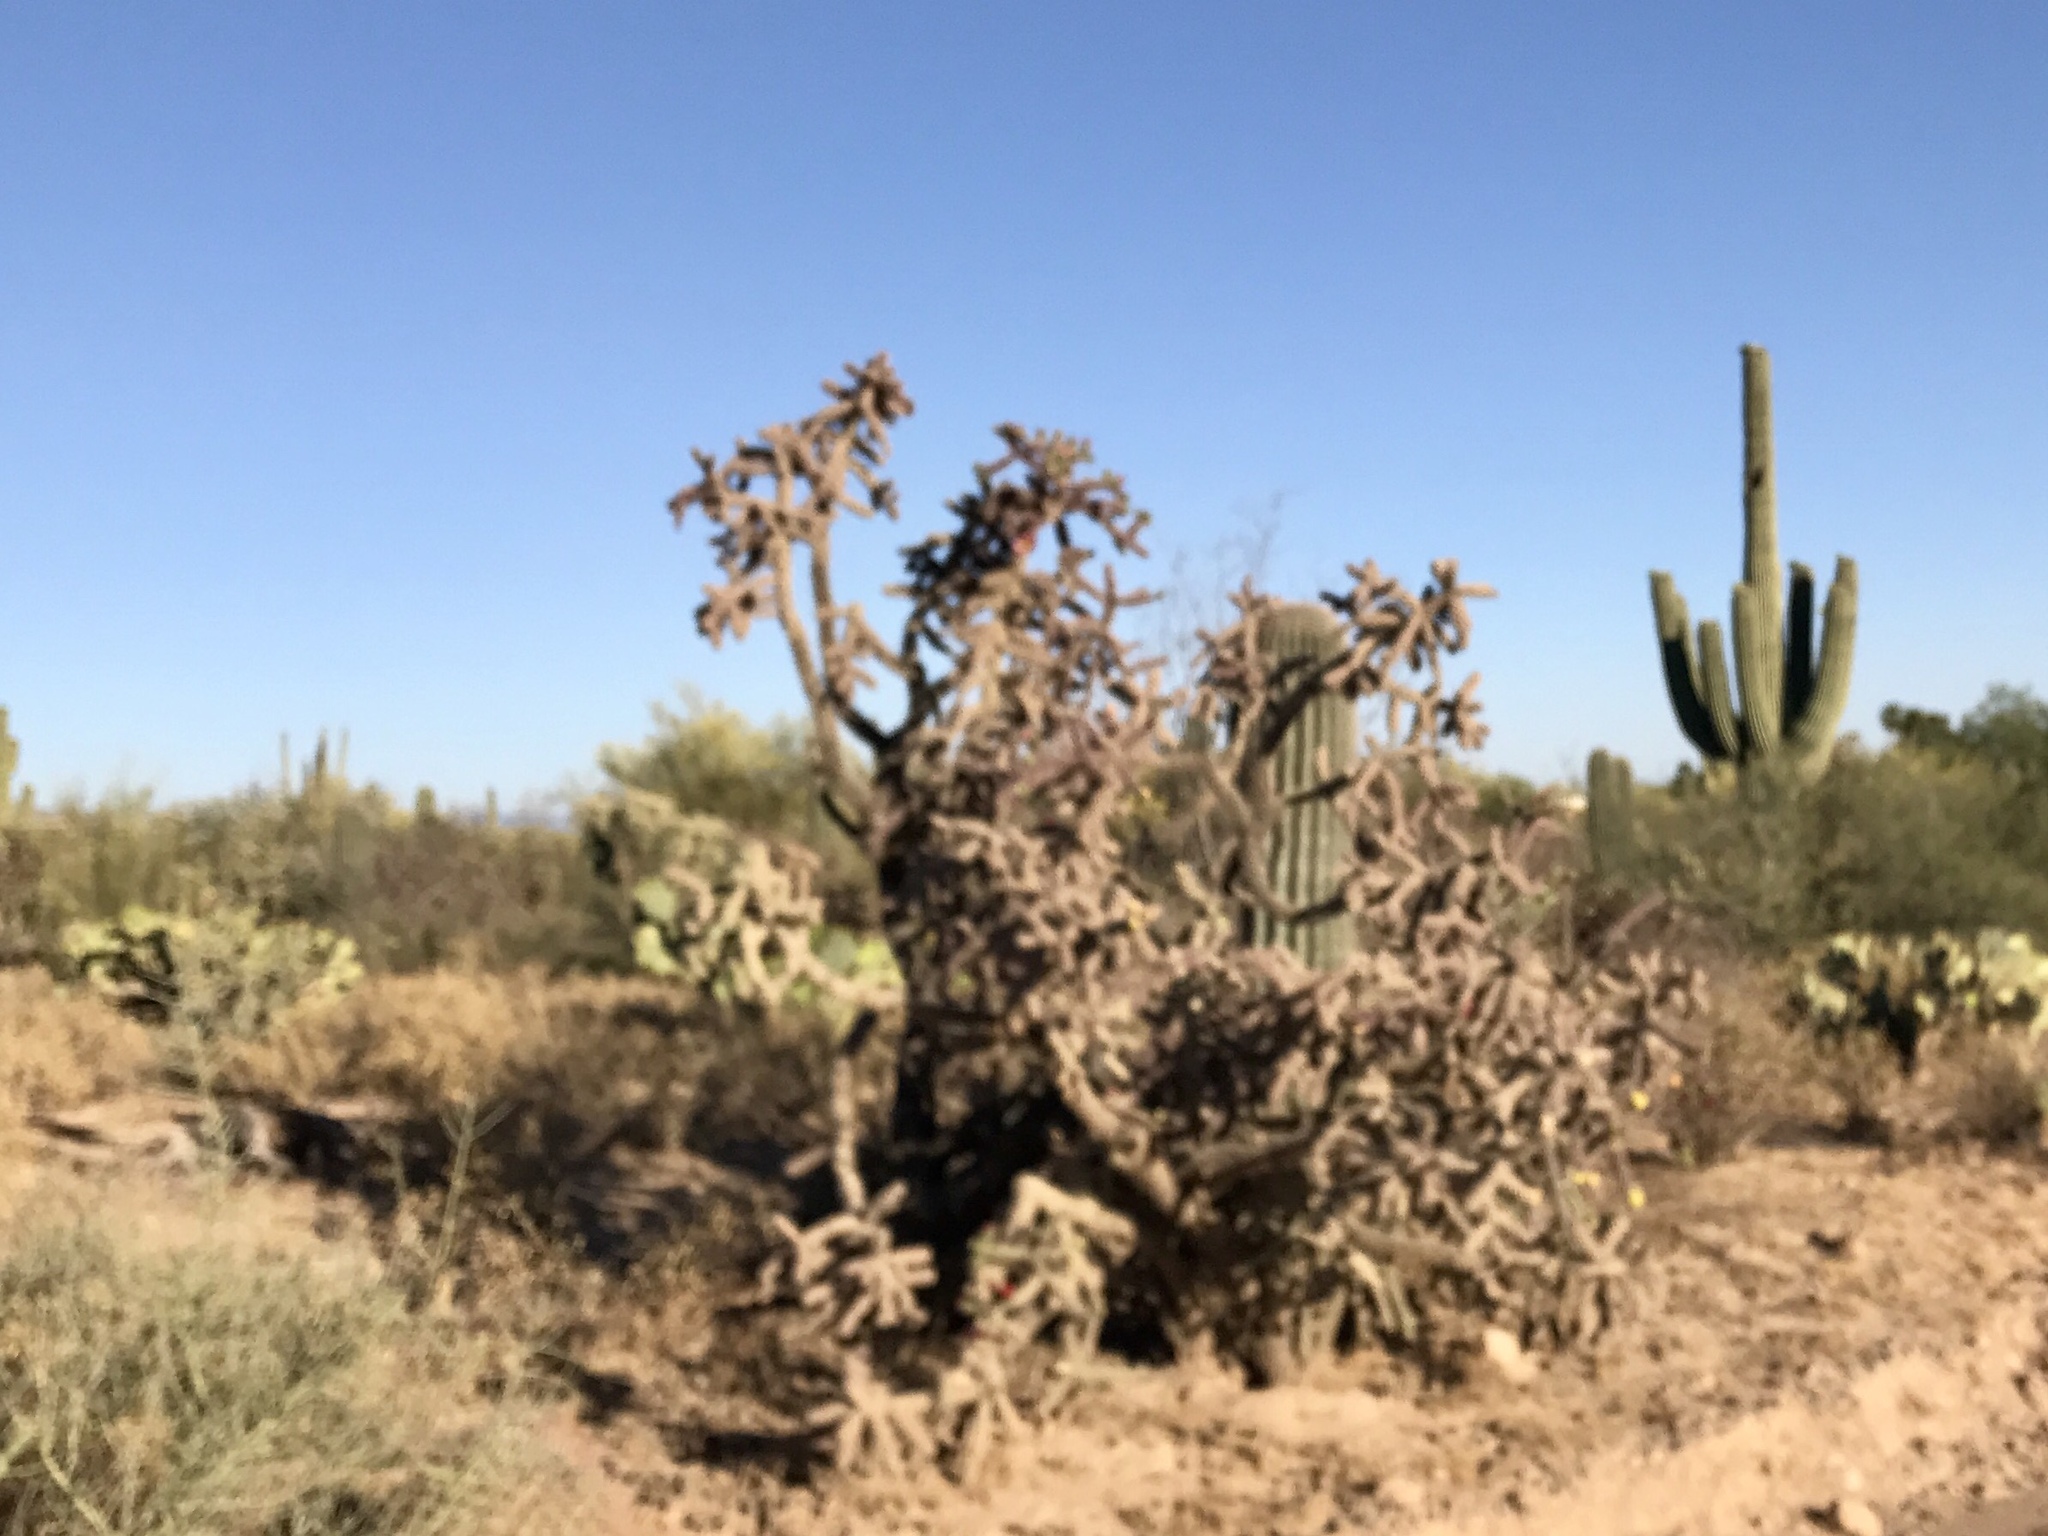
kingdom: Plantae
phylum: Tracheophyta
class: Magnoliopsida
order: Caryophyllales
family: Cactaceae
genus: Cylindropuntia
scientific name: Cylindropuntia thurberi
